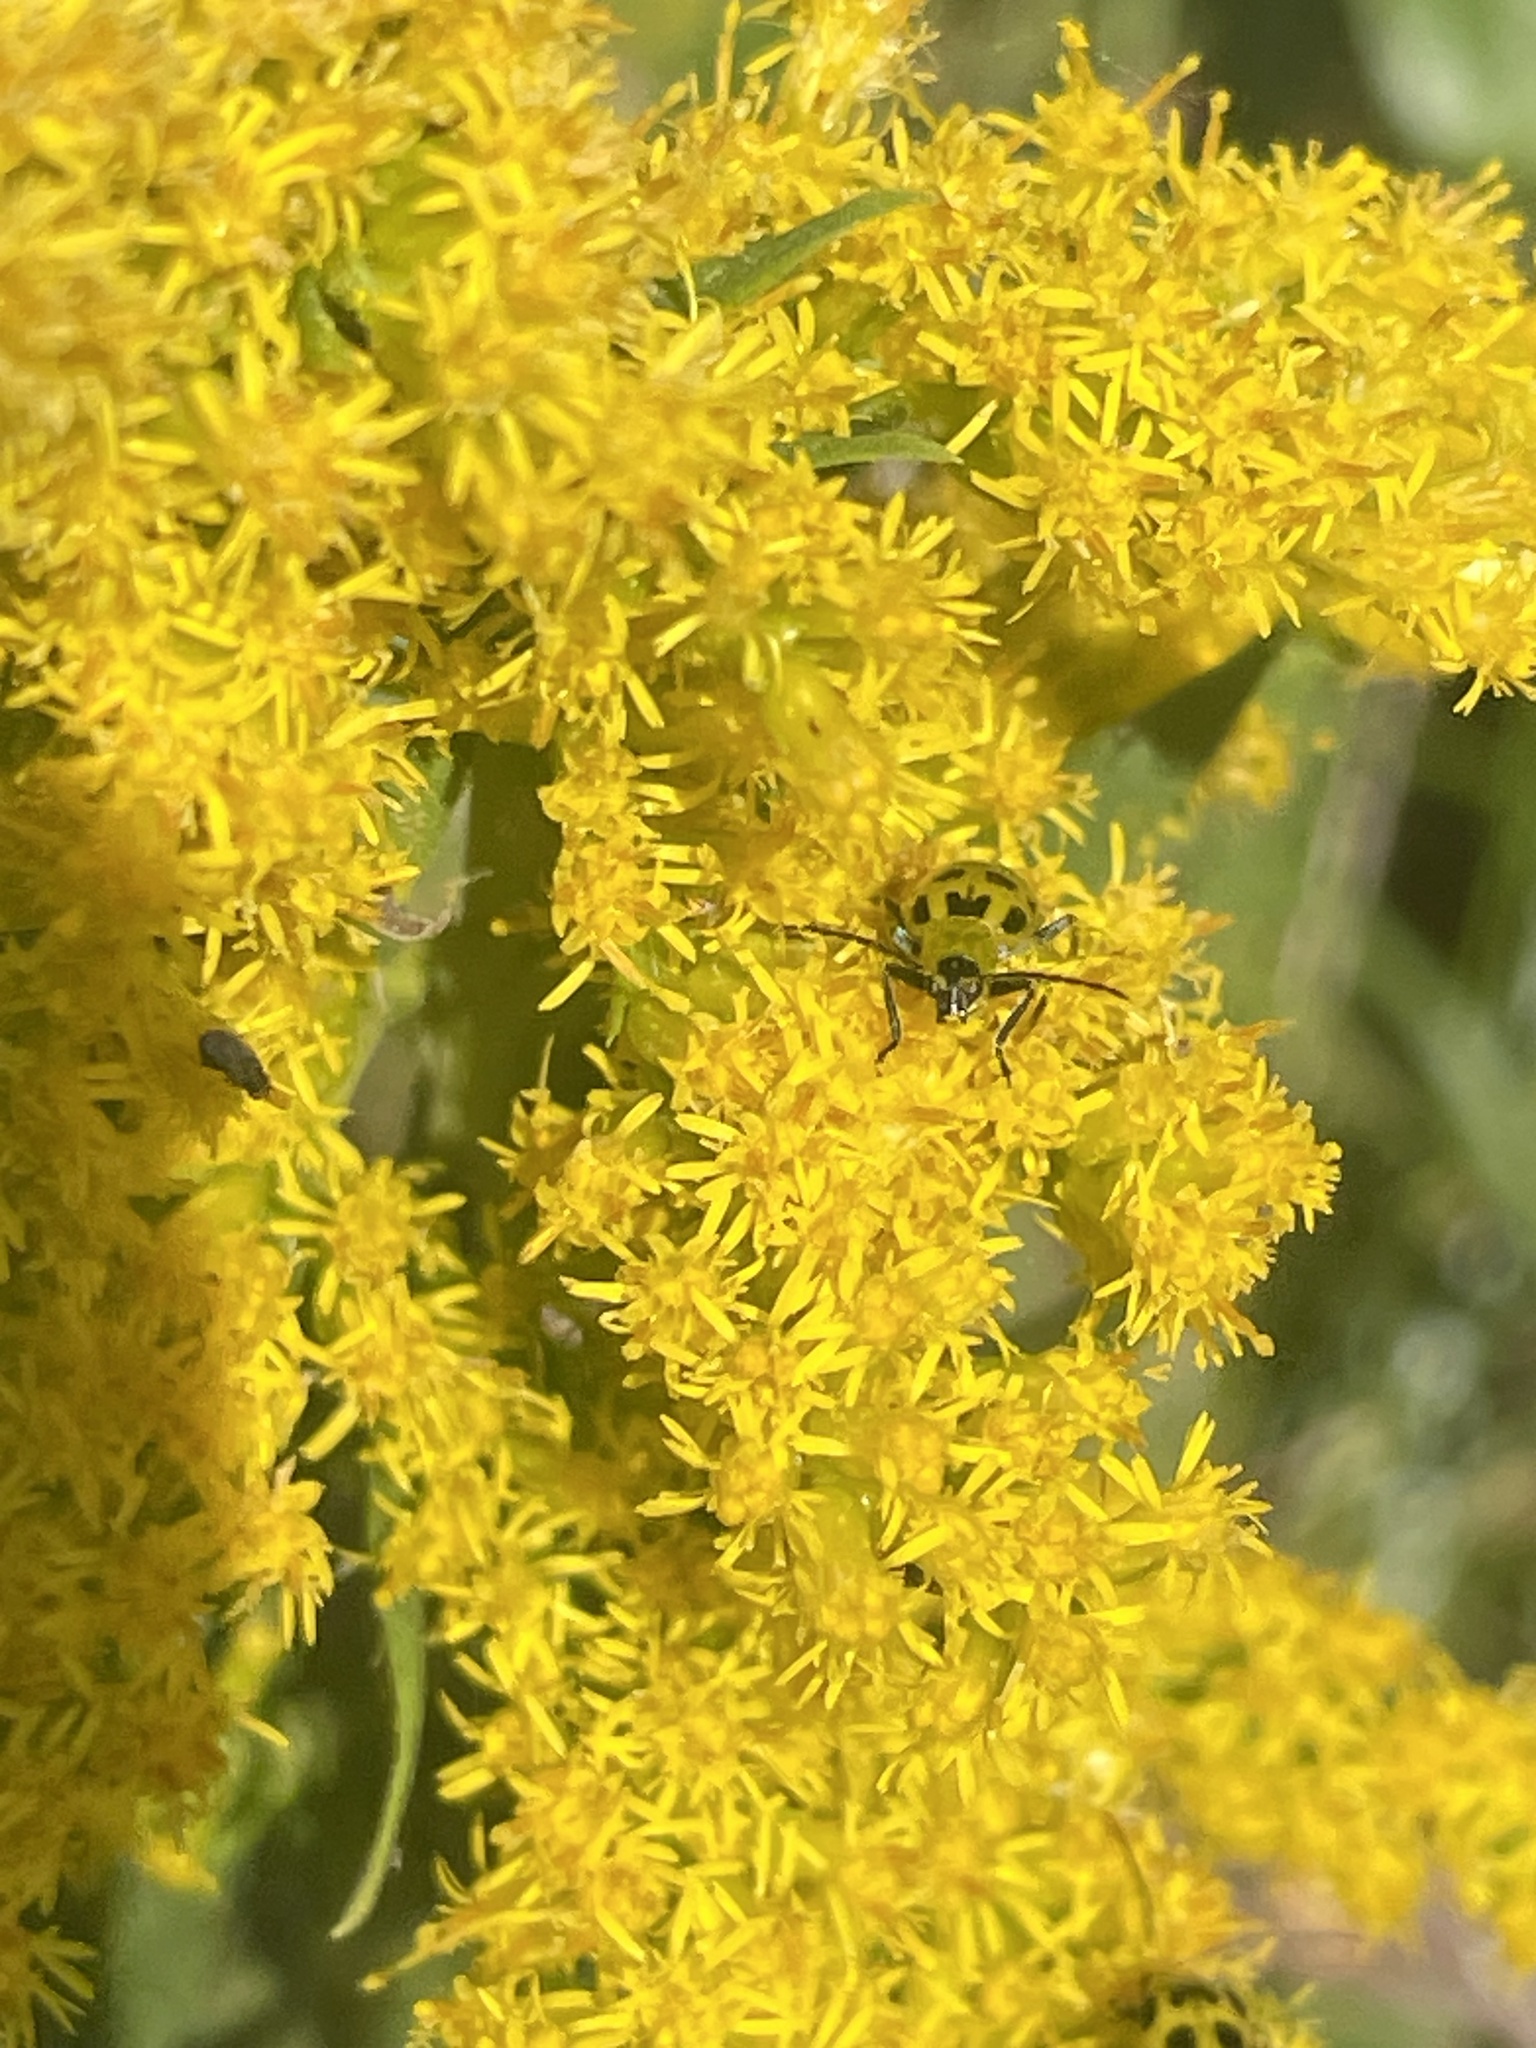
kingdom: Animalia
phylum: Arthropoda
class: Insecta
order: Coleoptera
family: Chrysomelidae
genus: Diabrotica
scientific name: Diabrotica undecimpunctata
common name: Spotted cucumber beetle
